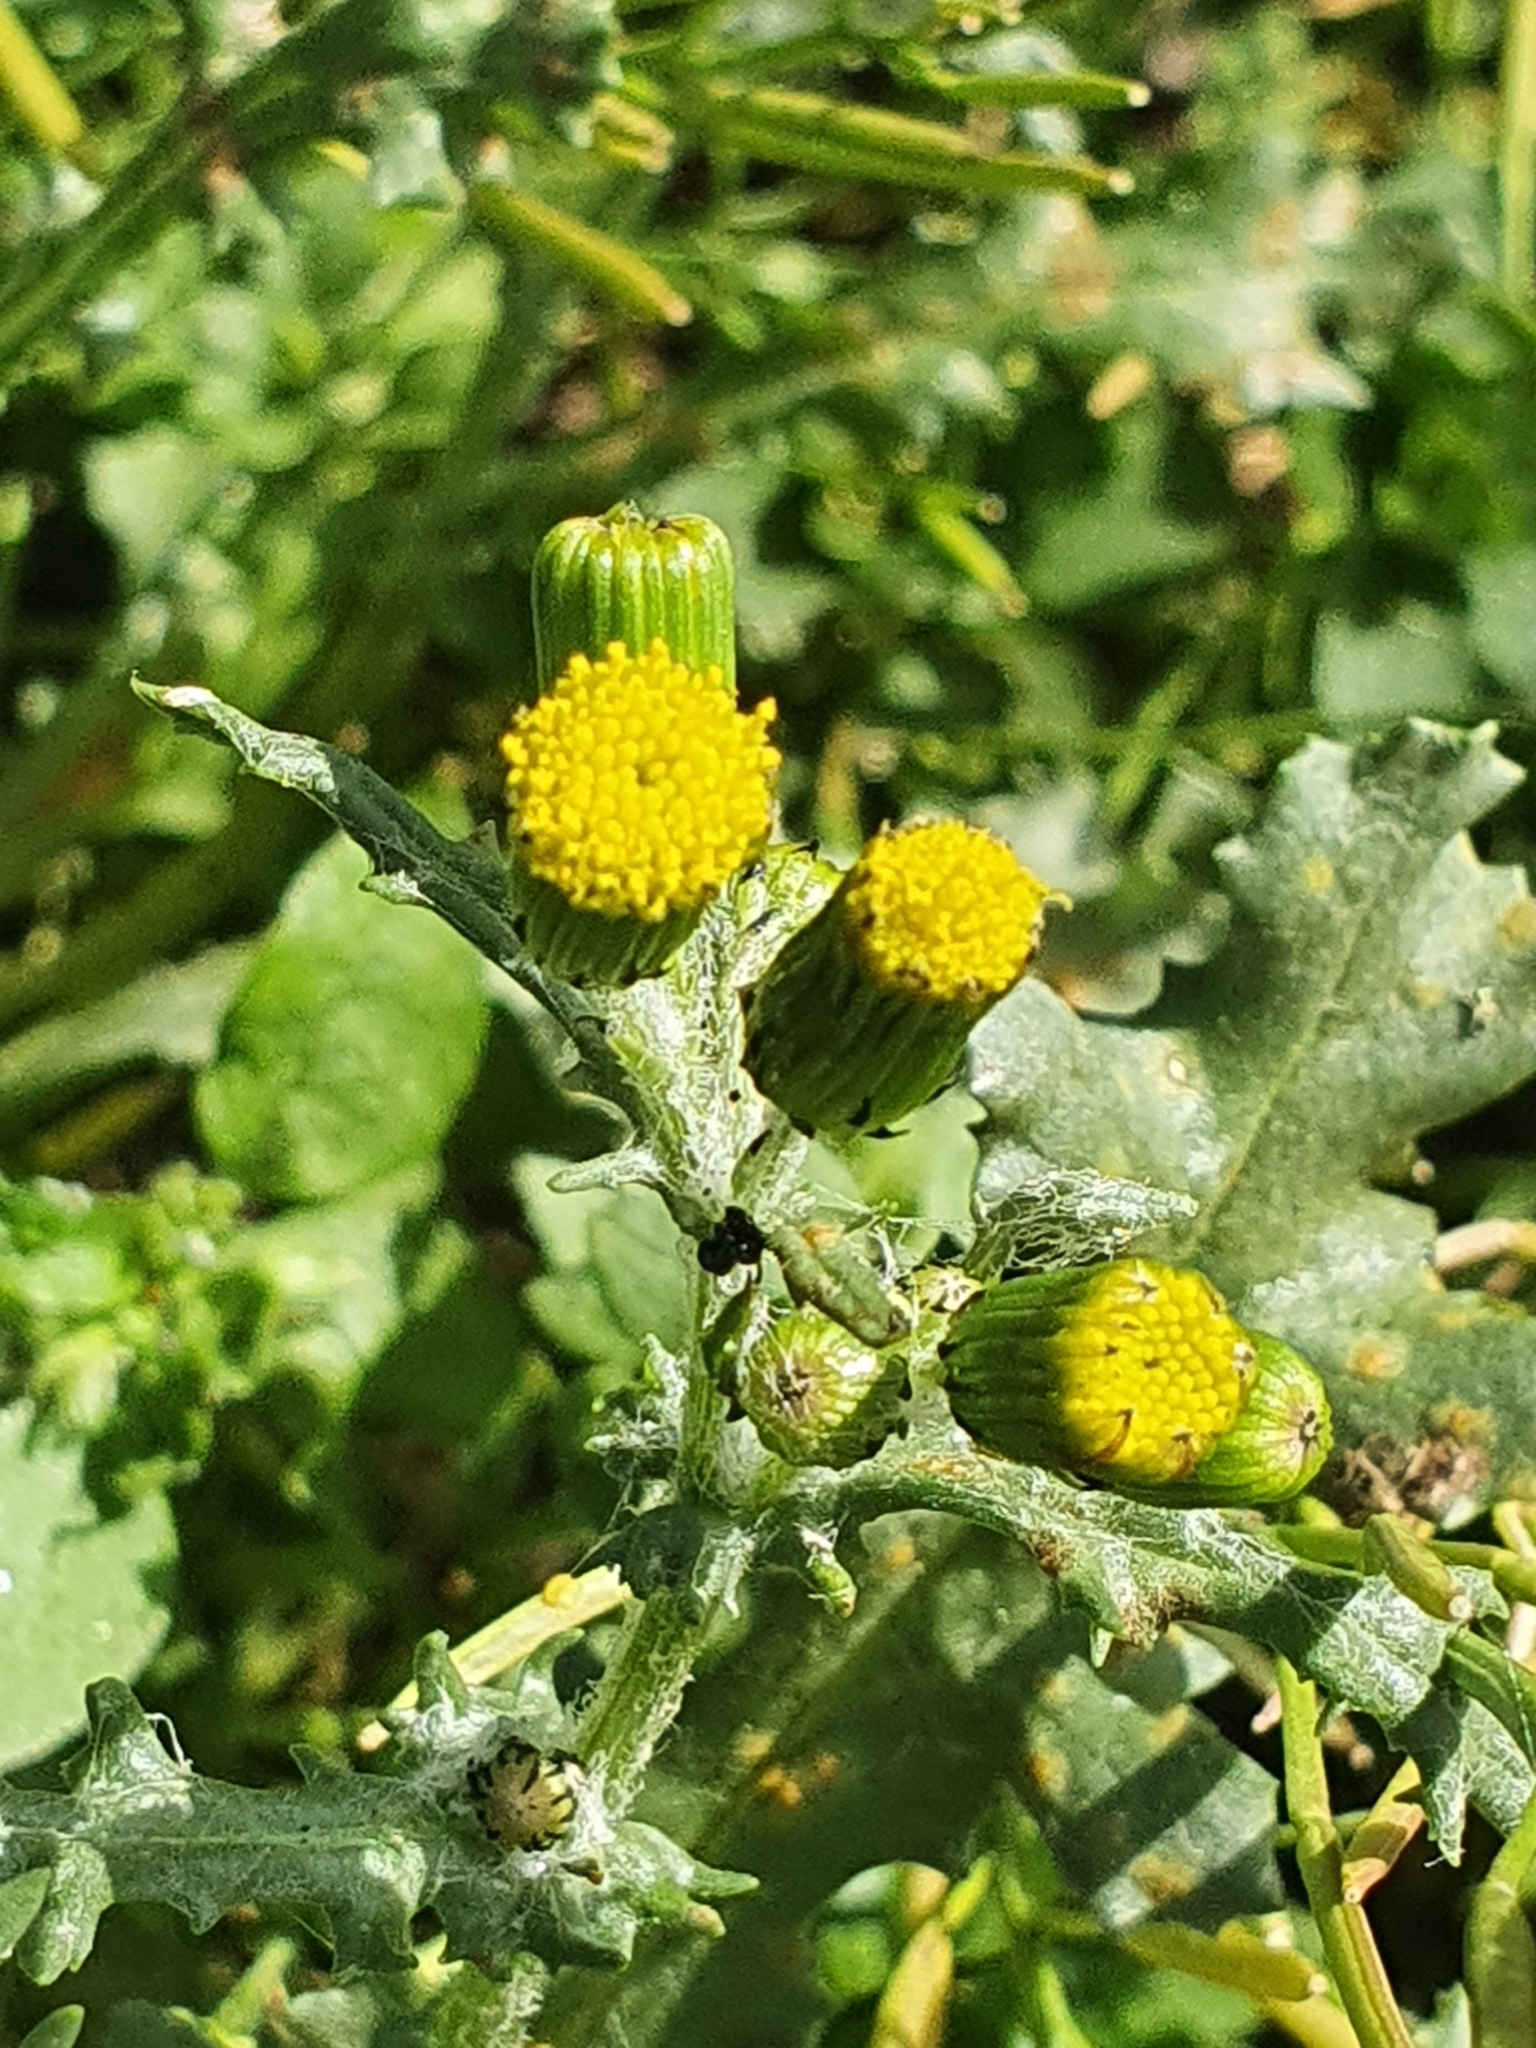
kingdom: Plantae
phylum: Tracheophyta
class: Magnoliopsida
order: Asterales
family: Asteraceae
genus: Senecio
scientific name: Senecio vulgaris
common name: Old-man-in-the-spring
